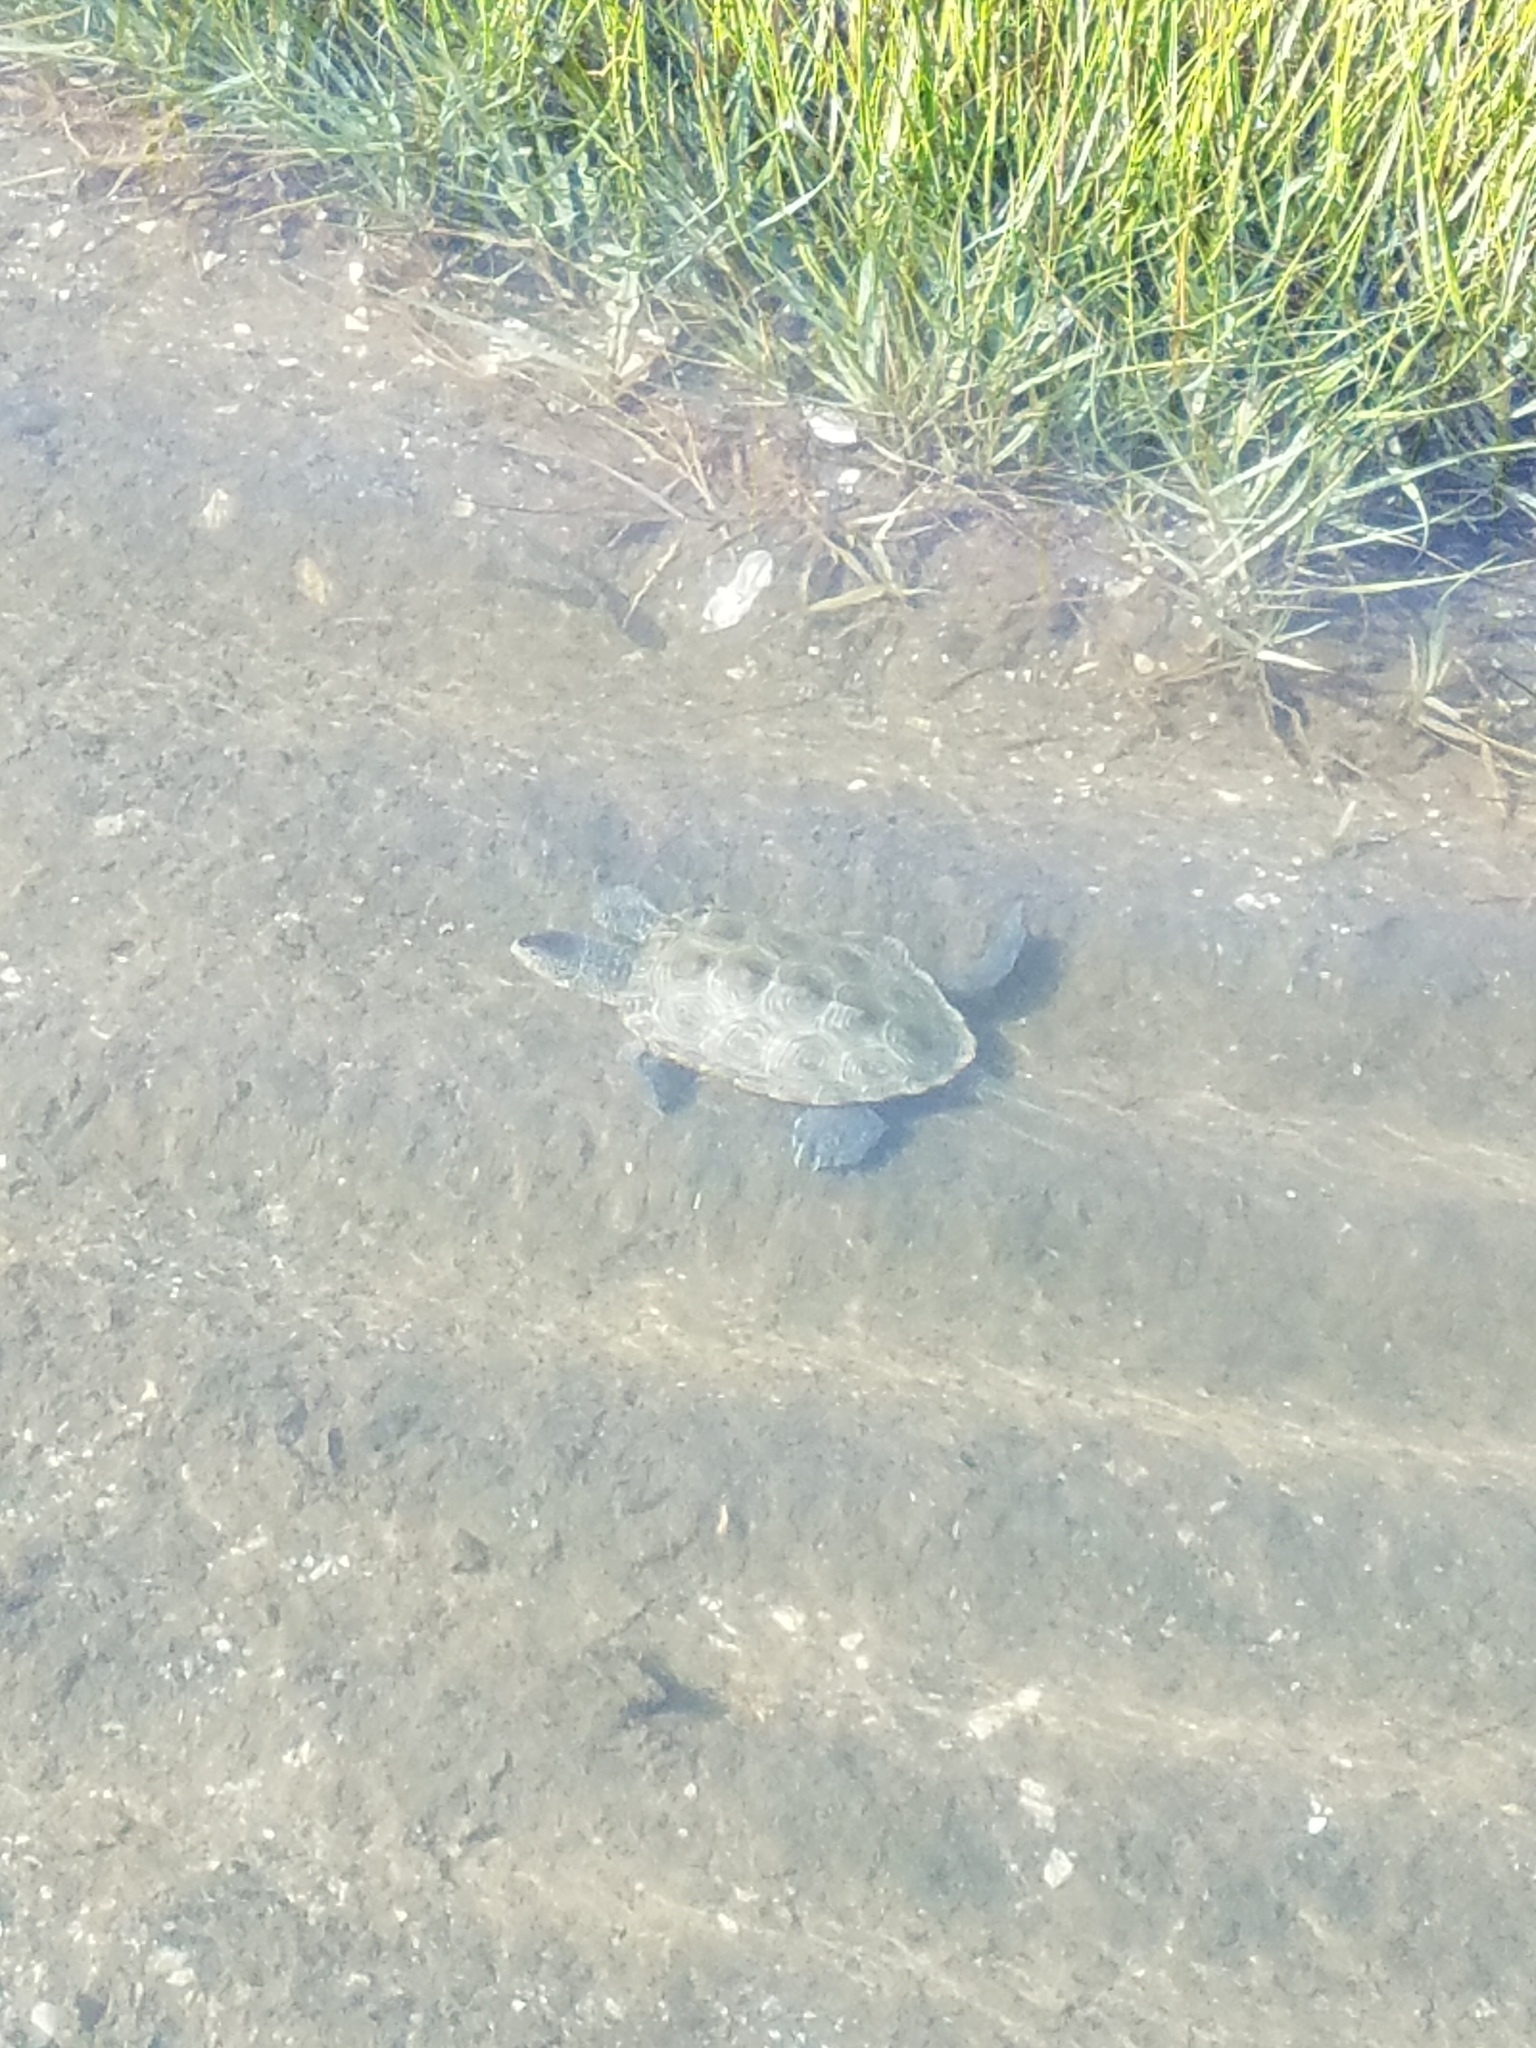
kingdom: Animalia
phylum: Chordata
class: Testudines
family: Emydidae
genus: Malaclemys
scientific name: Malaclemys terrapin
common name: Diamondback terrapin
